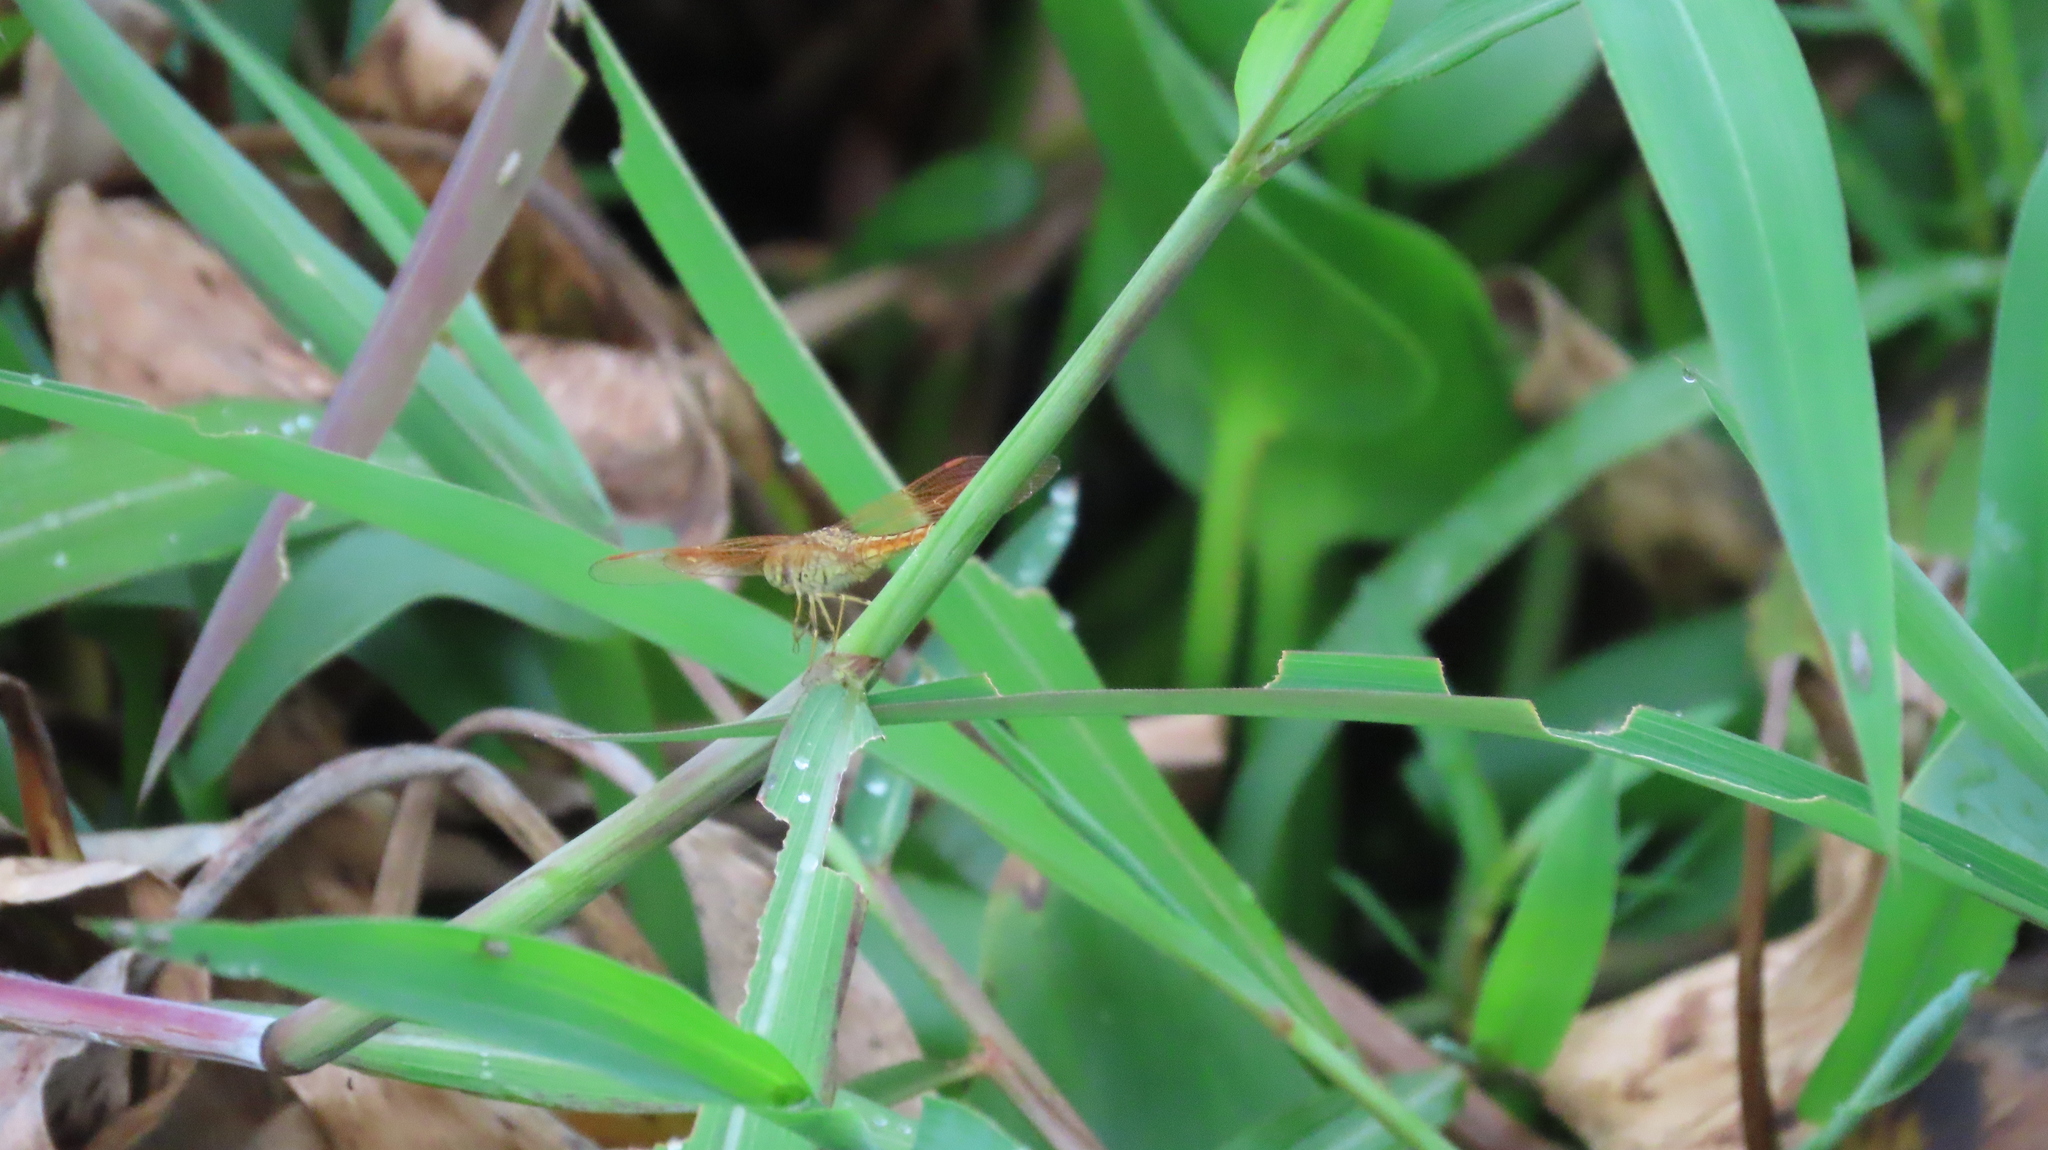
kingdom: Animalia
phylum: Arthropoda
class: Insecta
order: Odonata
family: Libellulidae
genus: Brachythemis
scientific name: Brachythemis contaminata
